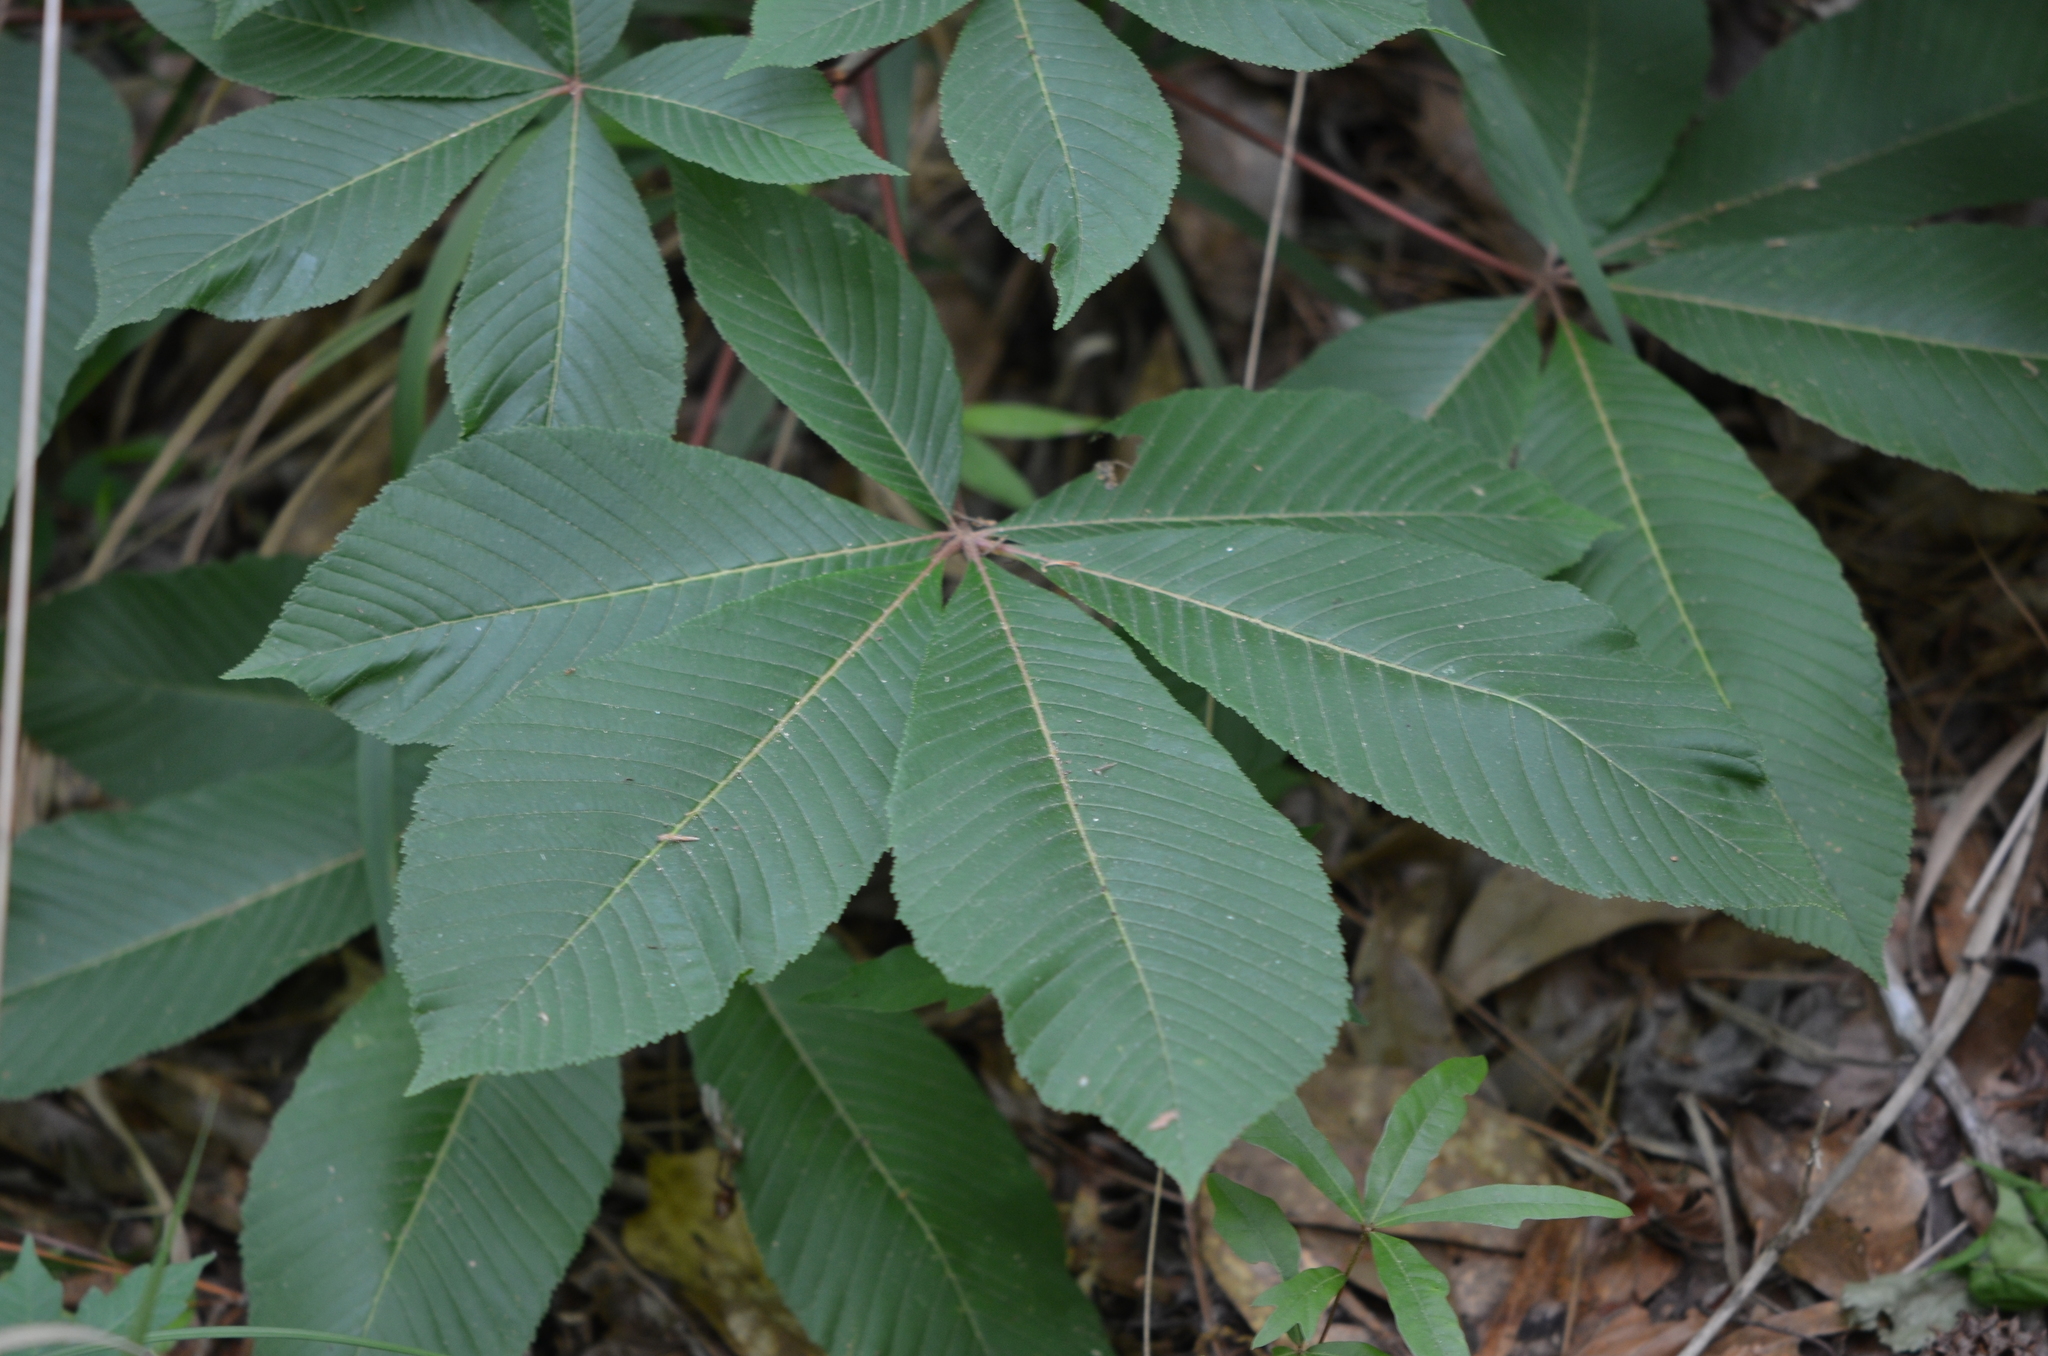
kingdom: Plantae
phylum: Tracheophyta
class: Magnoliopsida
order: Sapindales
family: Sapindaceae
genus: Aesculus
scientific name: Aesculus pavia
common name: Red buckeye
